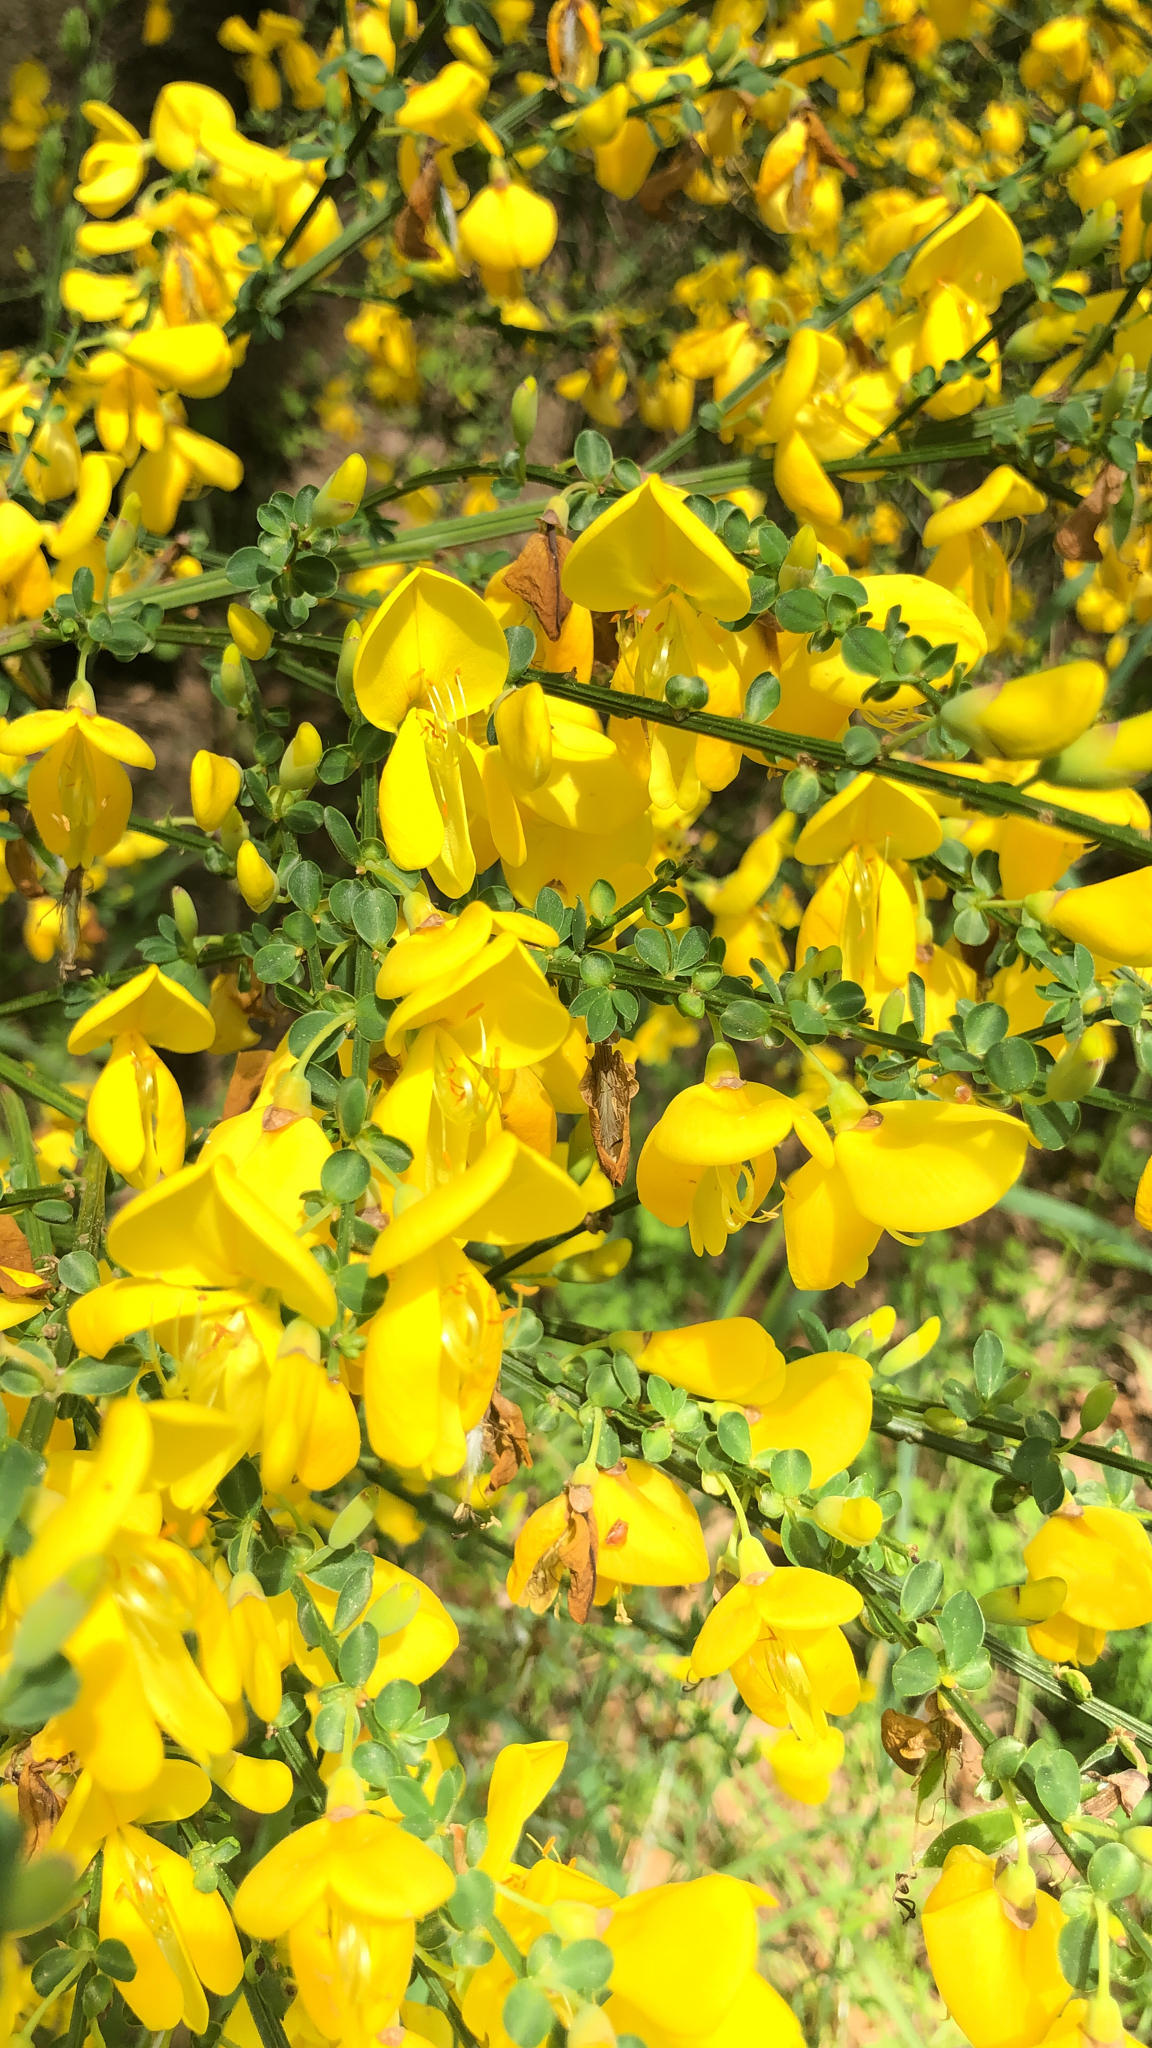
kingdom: Plantae
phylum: Tracheophyta
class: Magnoliopsida
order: Fabales
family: Fabaceae
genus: Cytisus
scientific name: Cytisus scoparius
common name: Scotch broom
